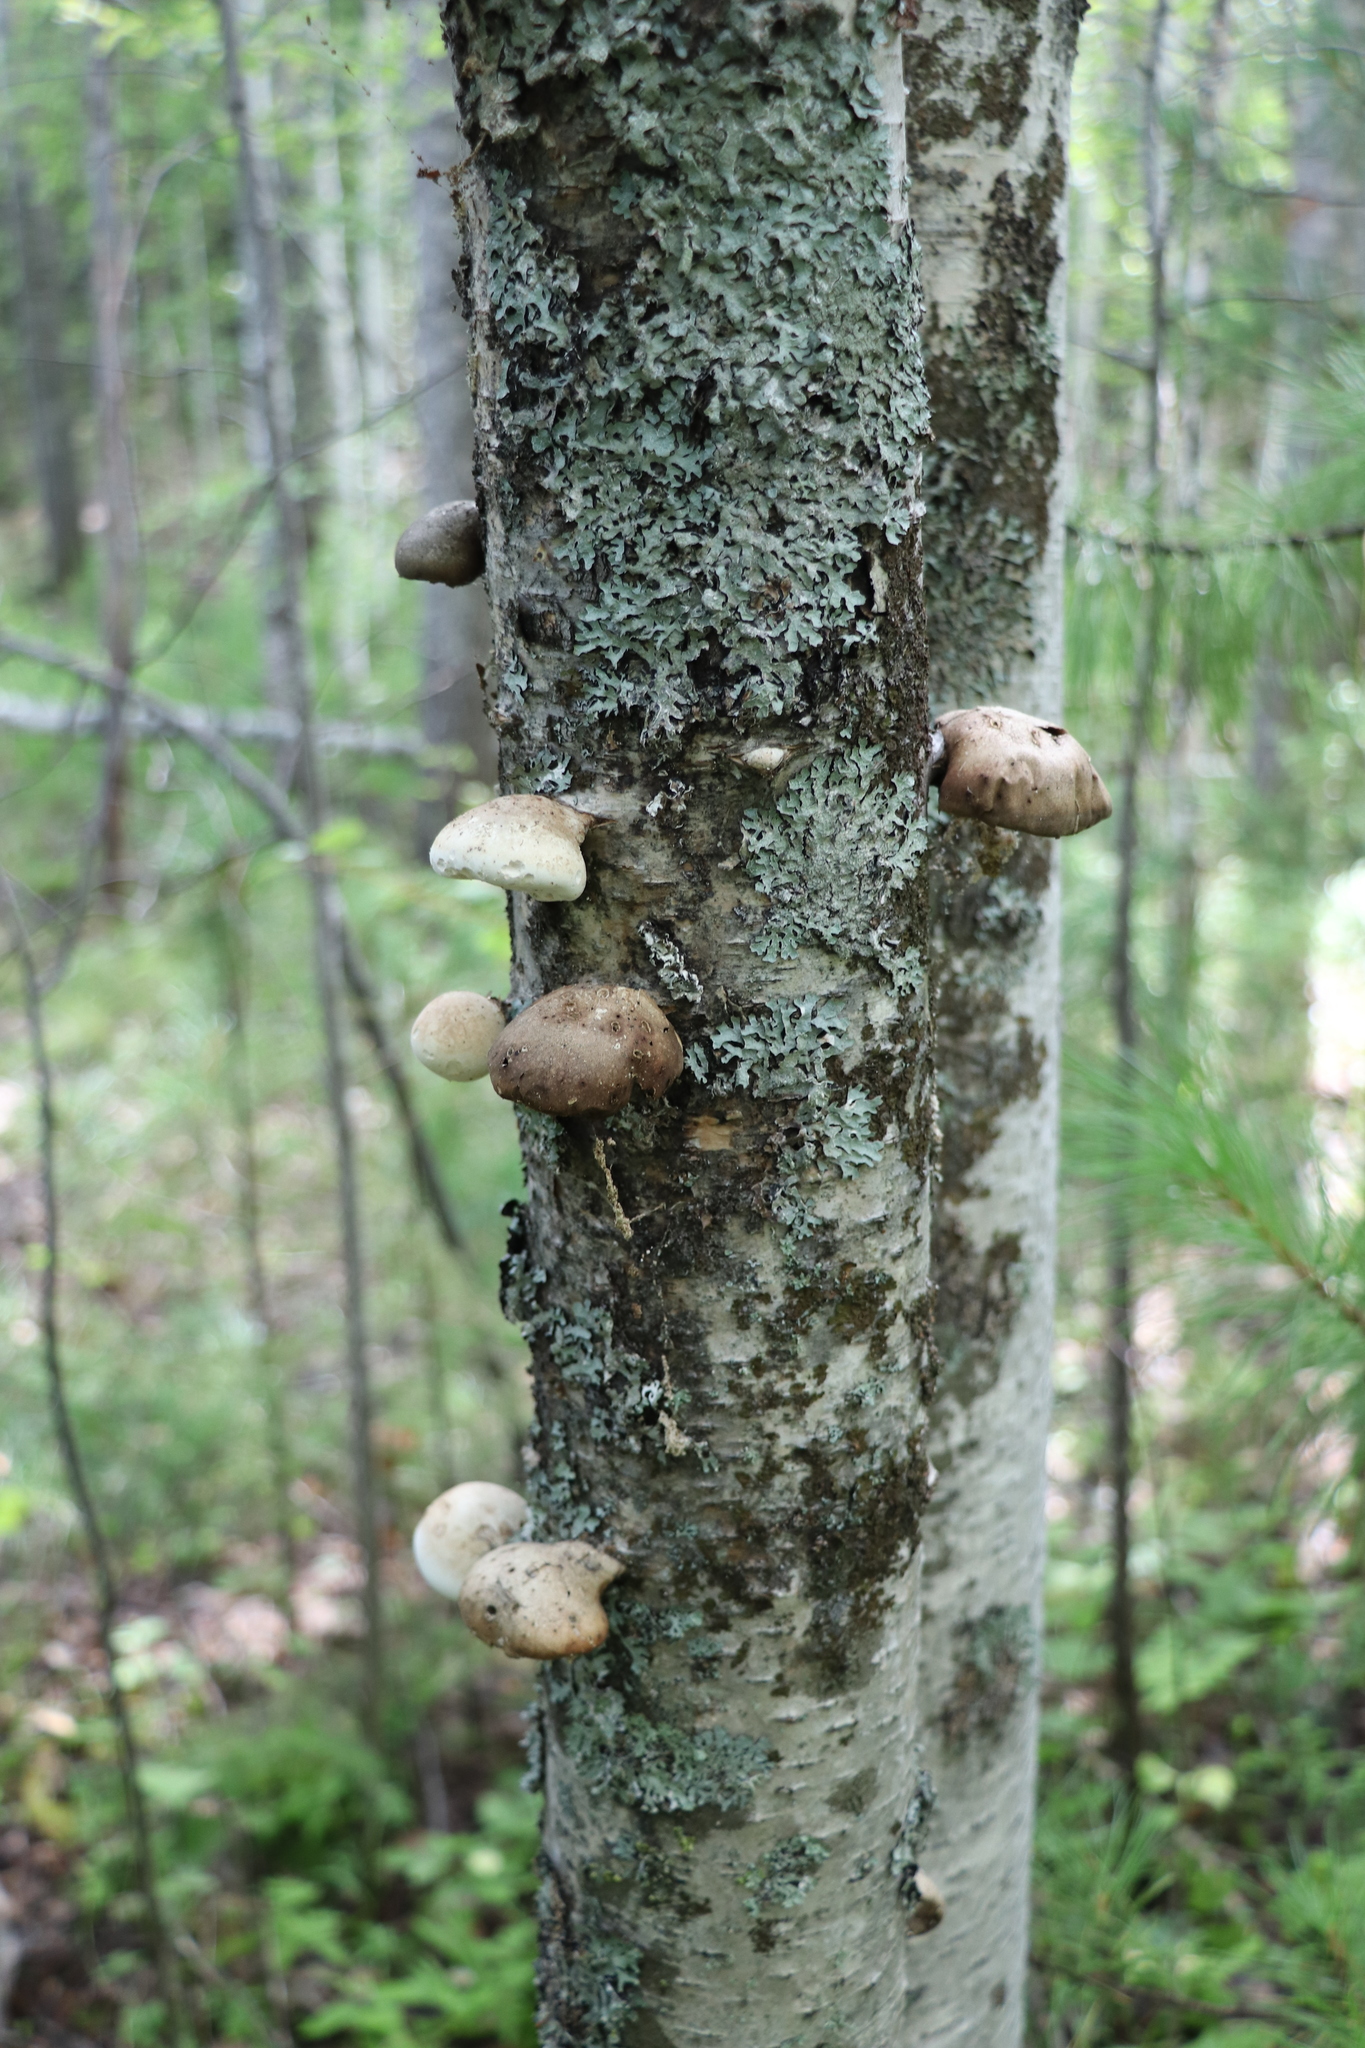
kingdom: Fungi
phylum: Basidiomycota
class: Agaricomycetes
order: Polyporales
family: Fomitopsidaceae
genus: Fomitopsis
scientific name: Fomitopsis betulina
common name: Birch polypore
